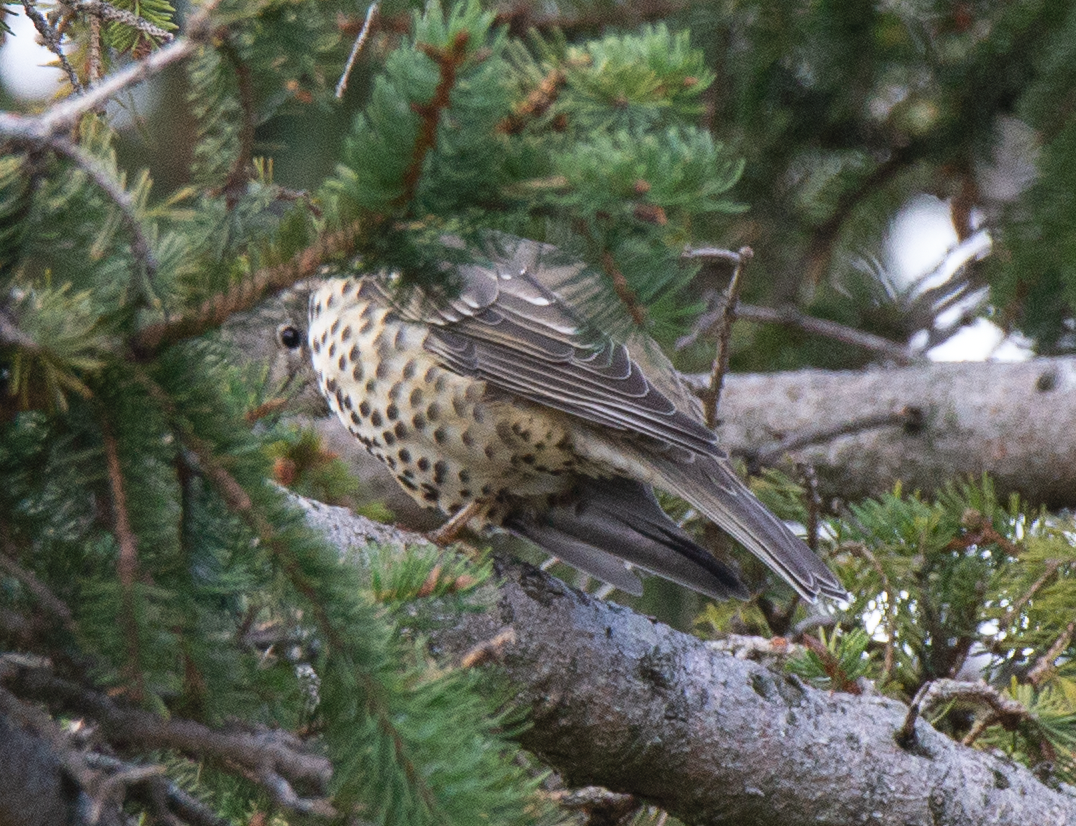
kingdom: Animalia
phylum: Chordata
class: Aves
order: Passeriformes
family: Turdidae
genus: Turdus
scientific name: Turdus viscivorus
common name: Mistle thrush
